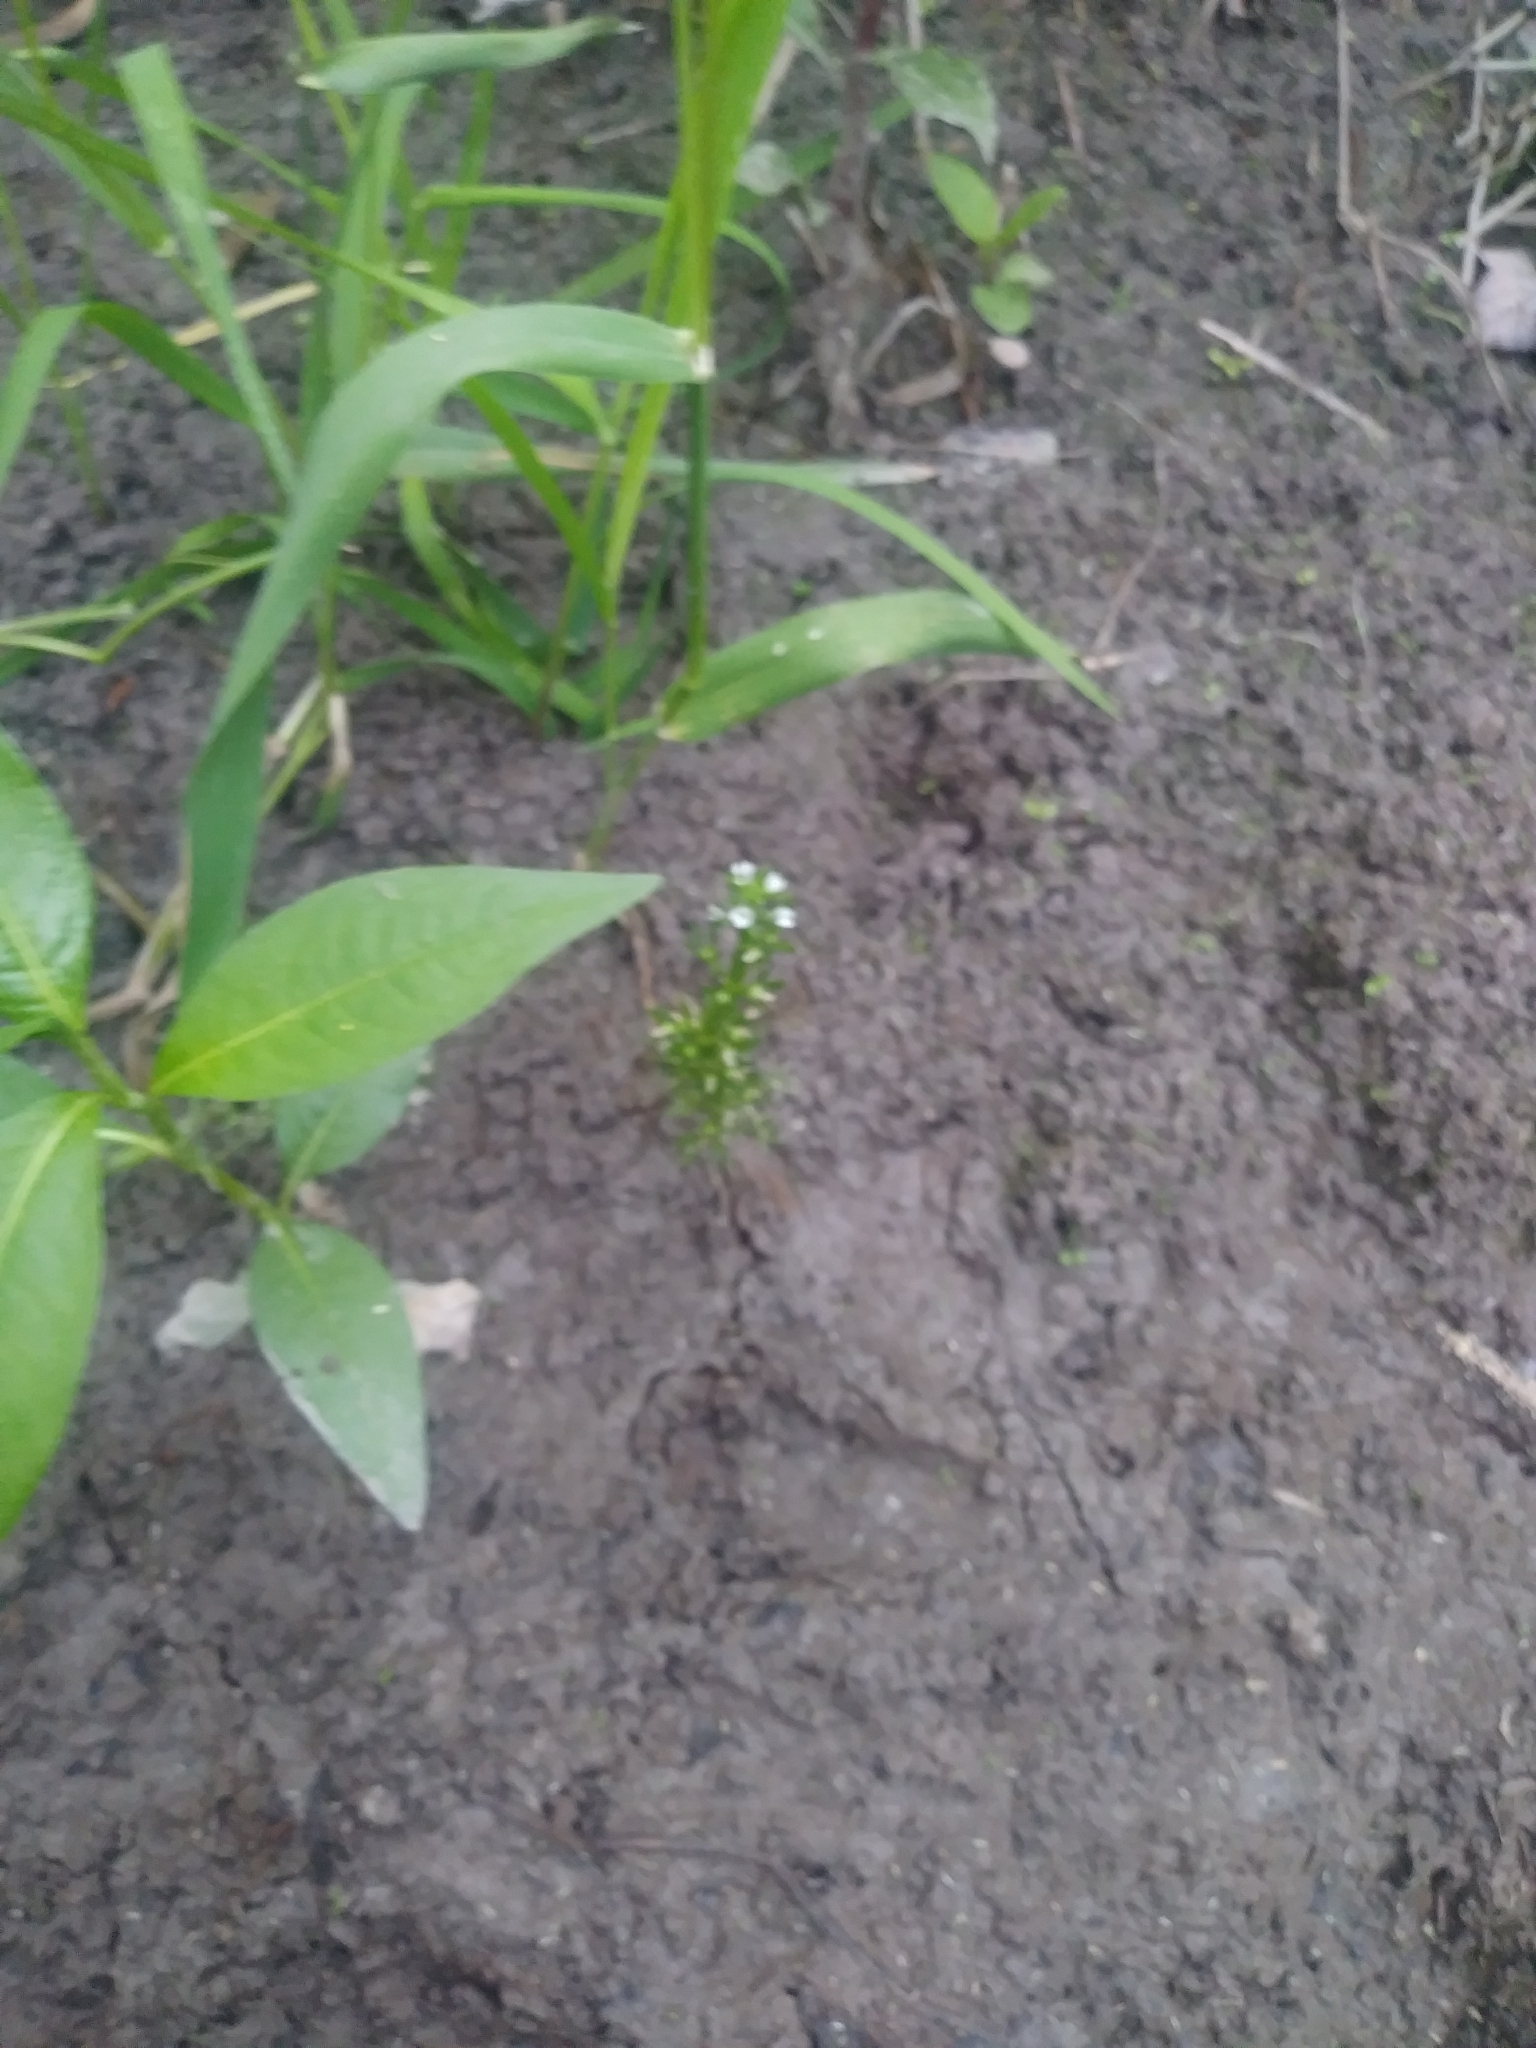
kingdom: Plantae
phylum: Tracheophyta
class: Magnoliopsida
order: Ericales
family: Primulaceae
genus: Hottonia
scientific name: Hottonia inflata
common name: American featherfoil
